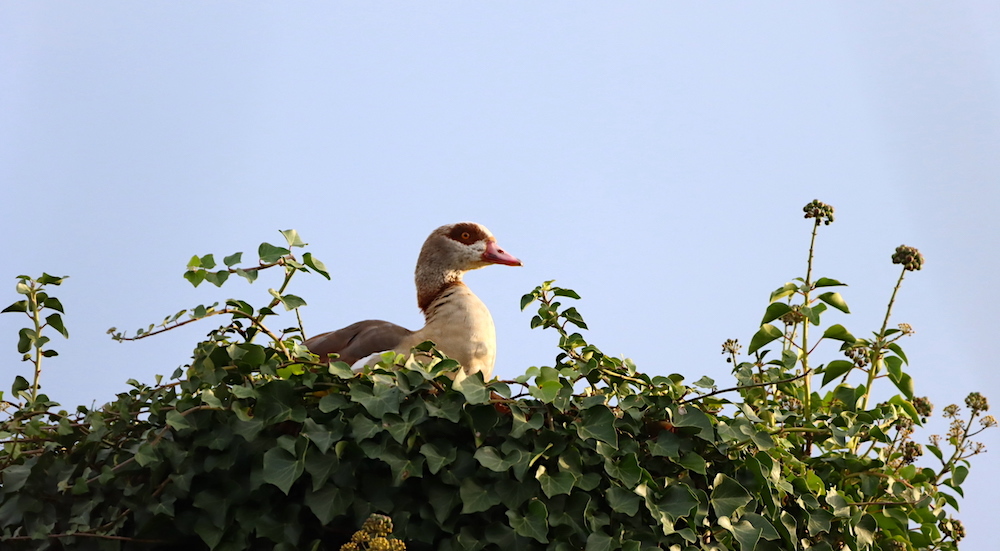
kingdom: Animalia
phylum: Chordata
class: Aves
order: Anseriformes
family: Anatidae
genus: Alopochen
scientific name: Alopochen aegyptiaca
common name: Egyptian goose
